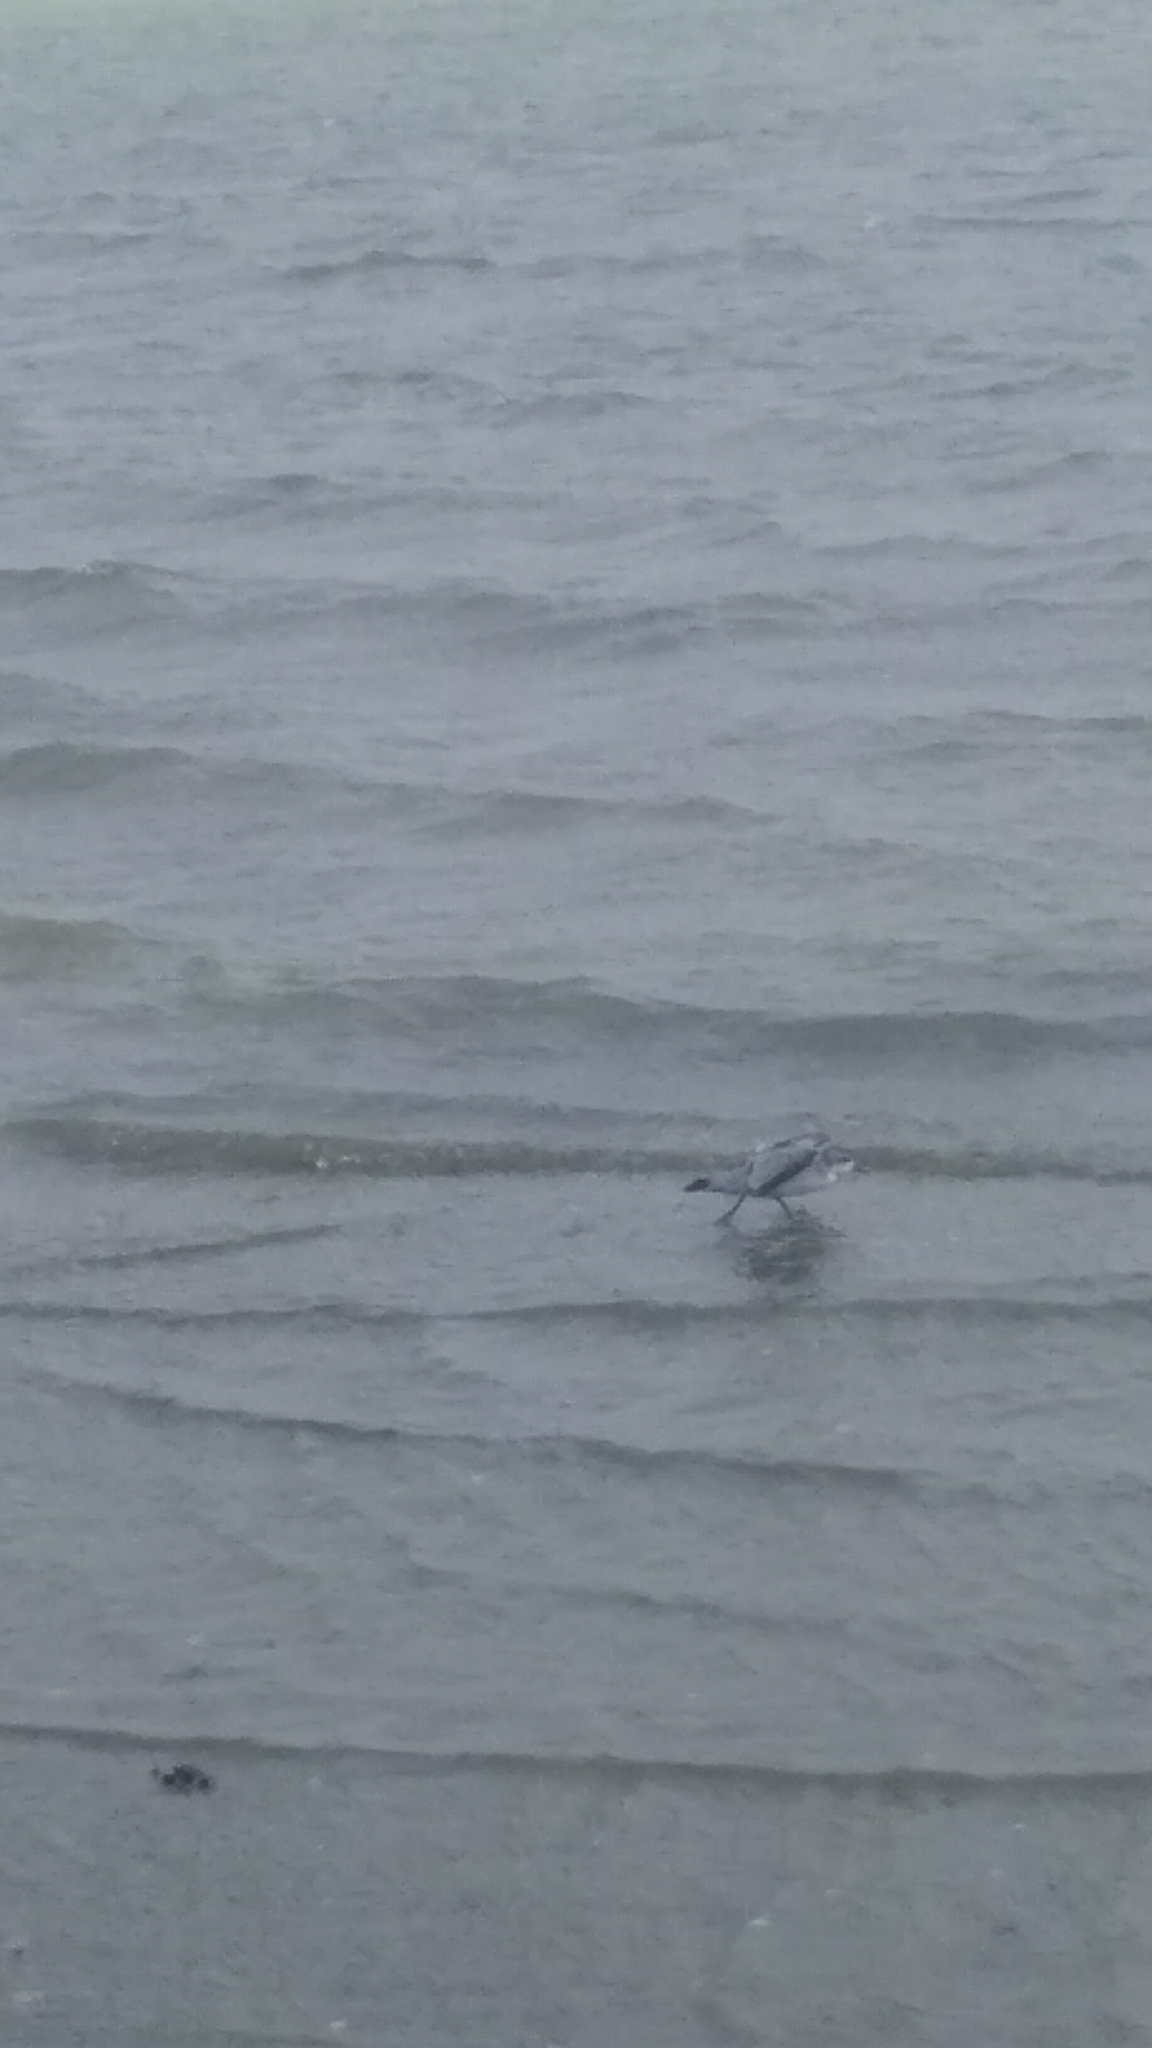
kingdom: Animalia
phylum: Chordata
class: Aves
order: Procellariiformes
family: Procellariidae
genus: Pachyptila
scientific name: Pachyptila turtur
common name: Fairy prion
